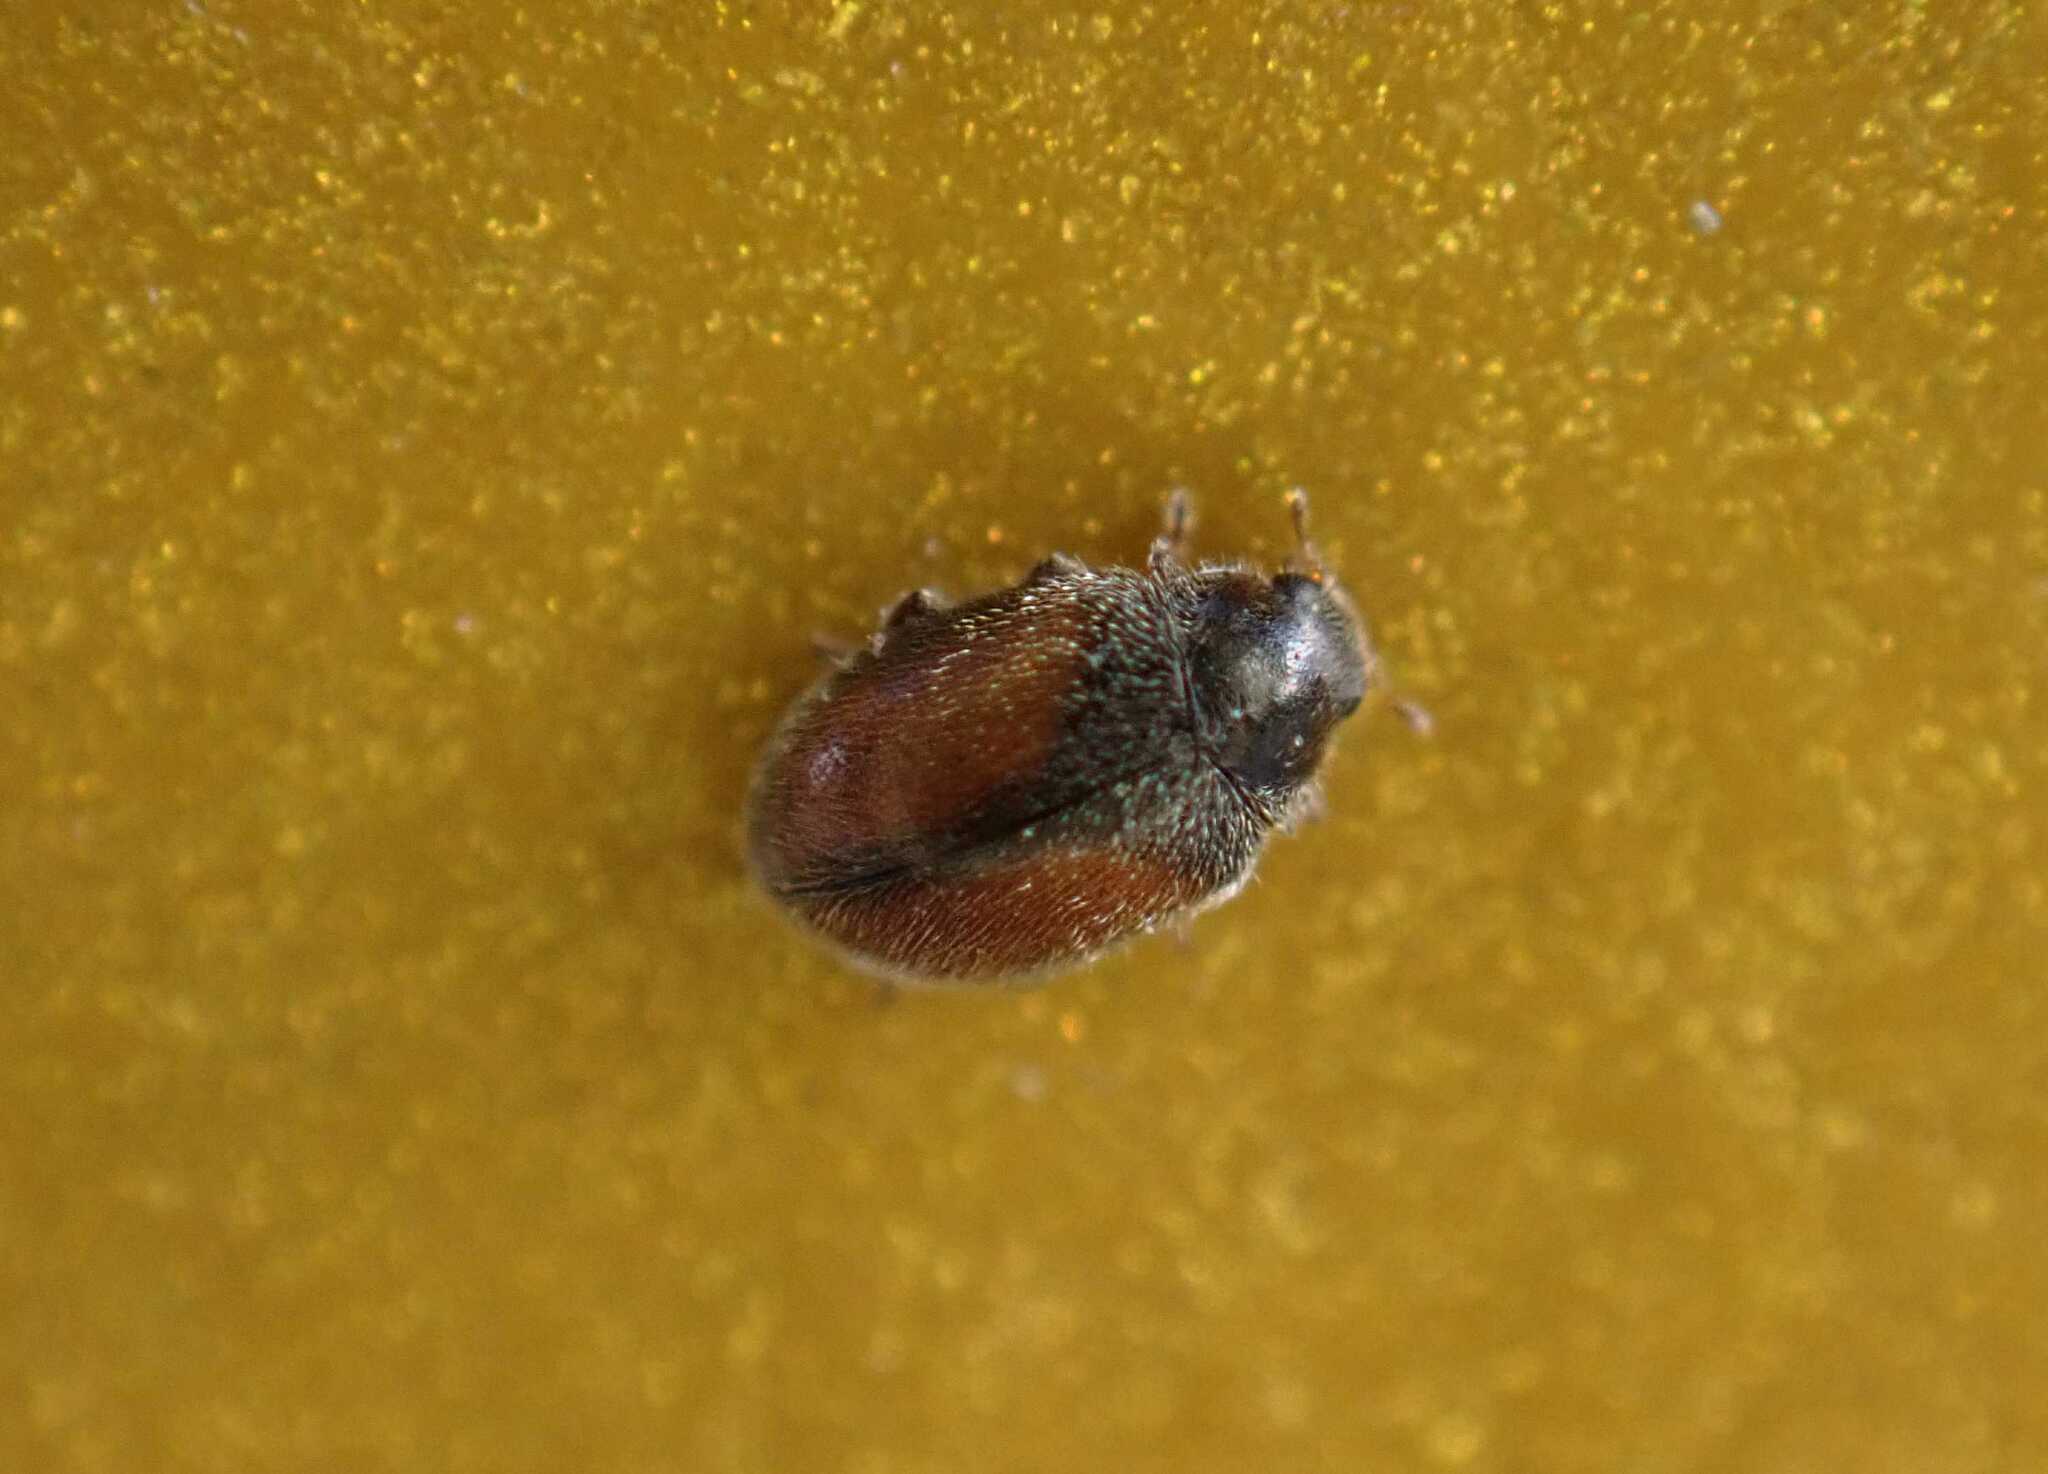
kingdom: Animalia
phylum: Arthropoda
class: Insecta
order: Coleoptera
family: Coccinellidae
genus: Scymnus
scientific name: Scymnus suturalis
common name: Ladybird beetle
